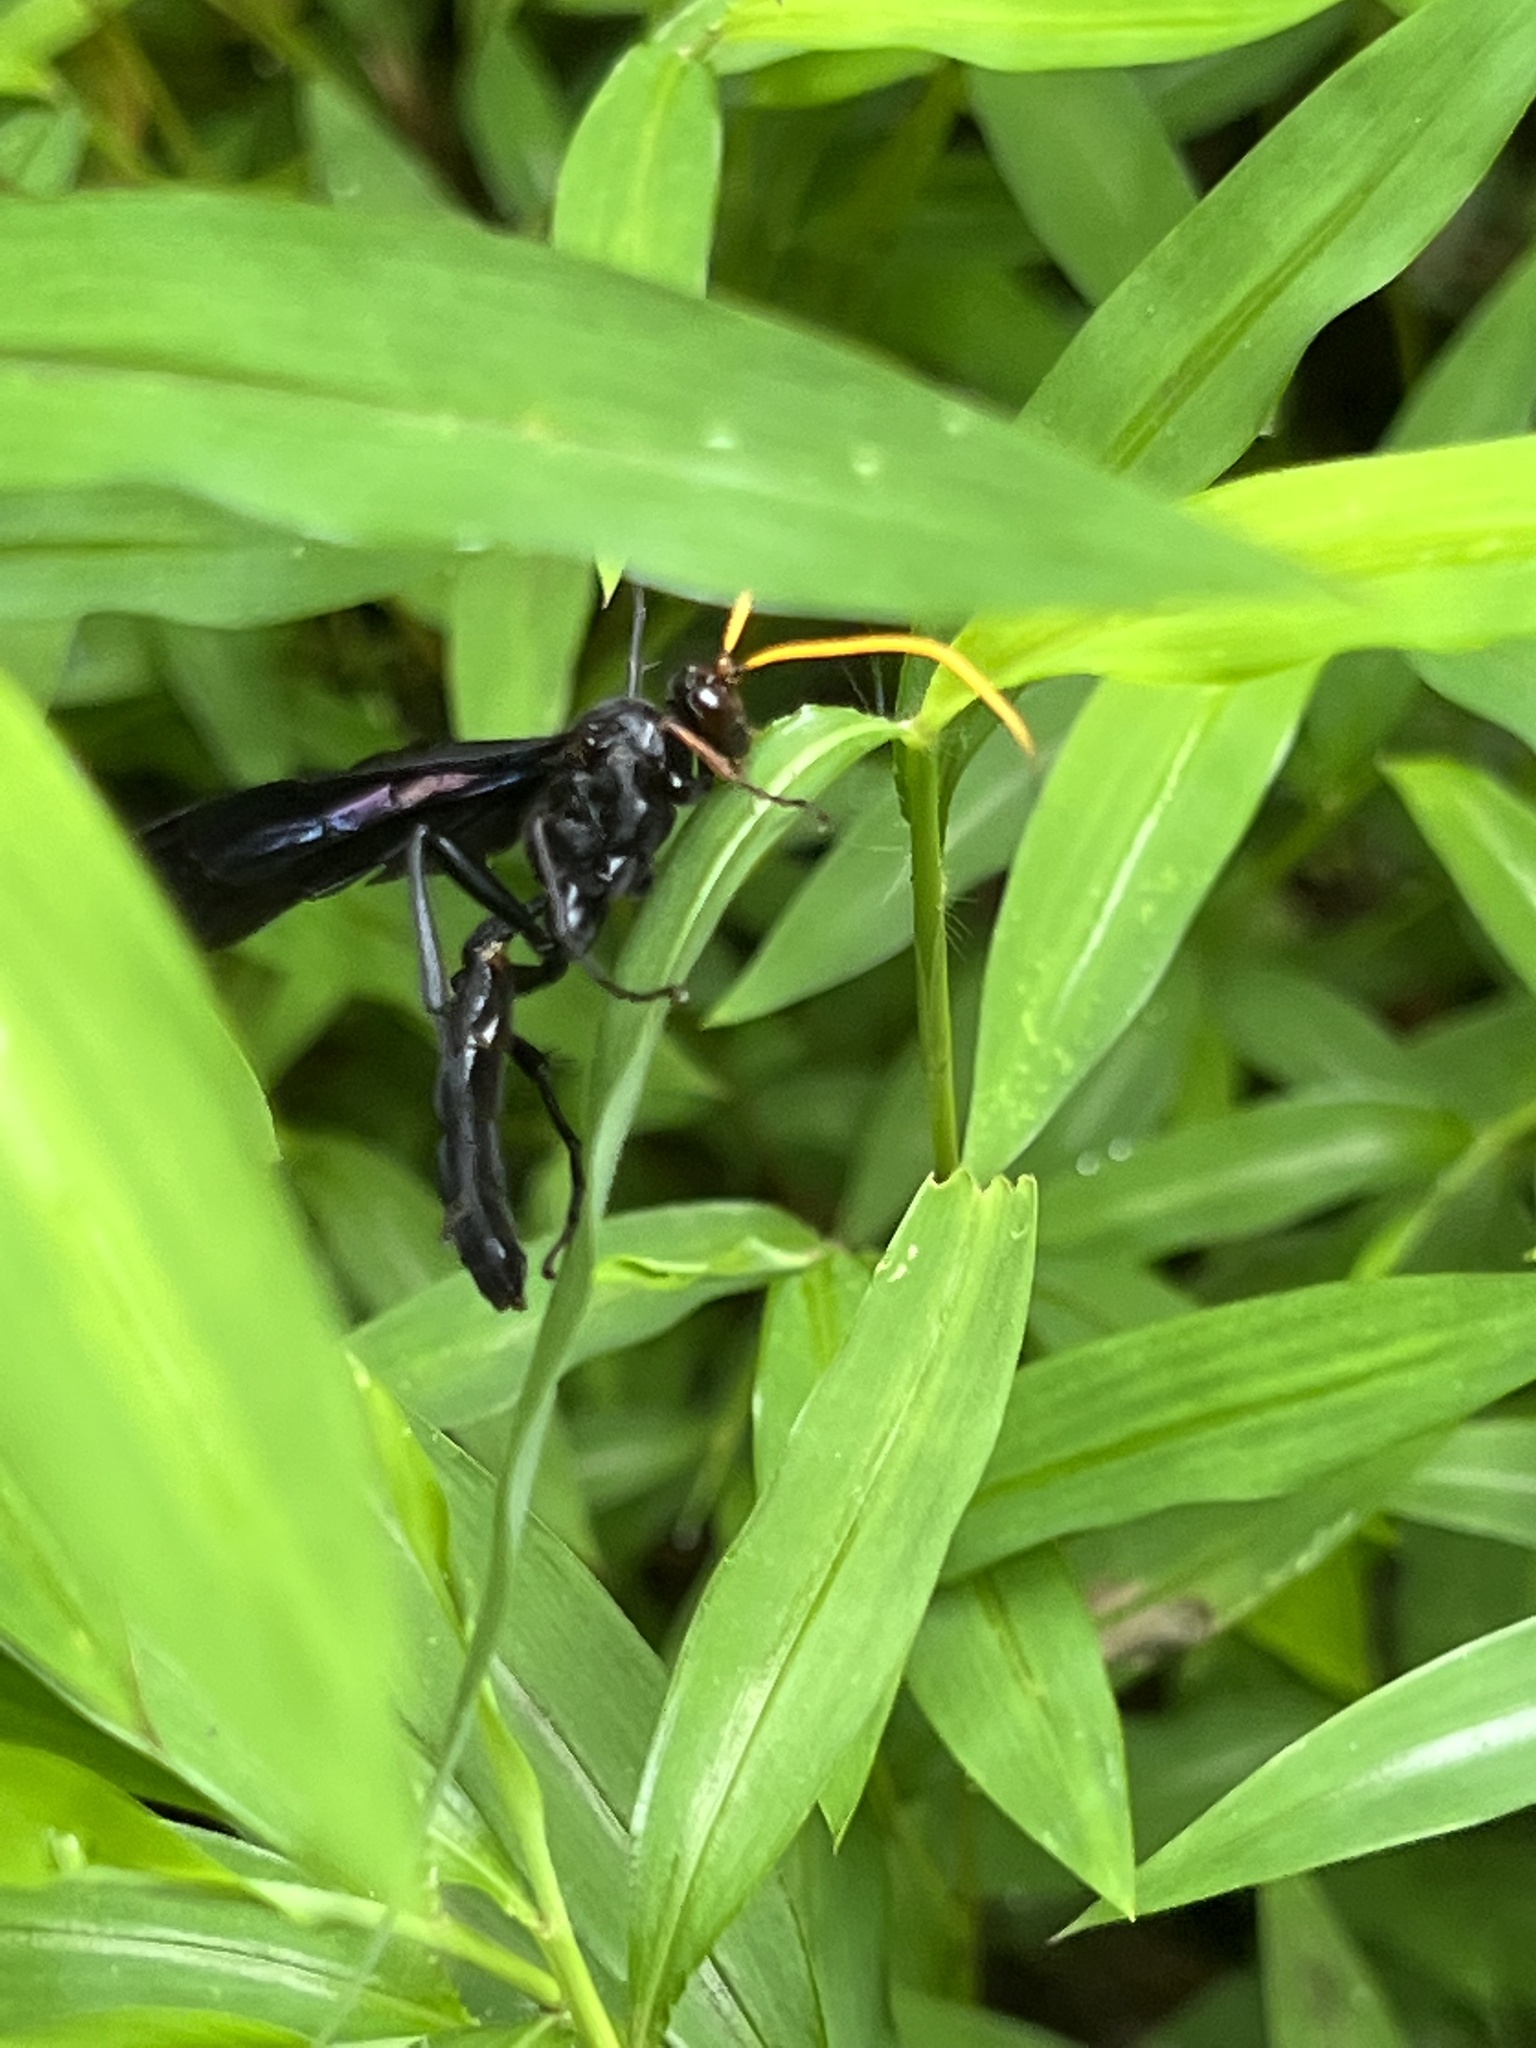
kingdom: Animalia
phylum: Arthropoda
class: Insecta
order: Hymenoptera
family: Ichneumonidae
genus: Gnamptopelta
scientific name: Gnamptopelta obsidianator
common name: Bent-shielded besieger wasp
